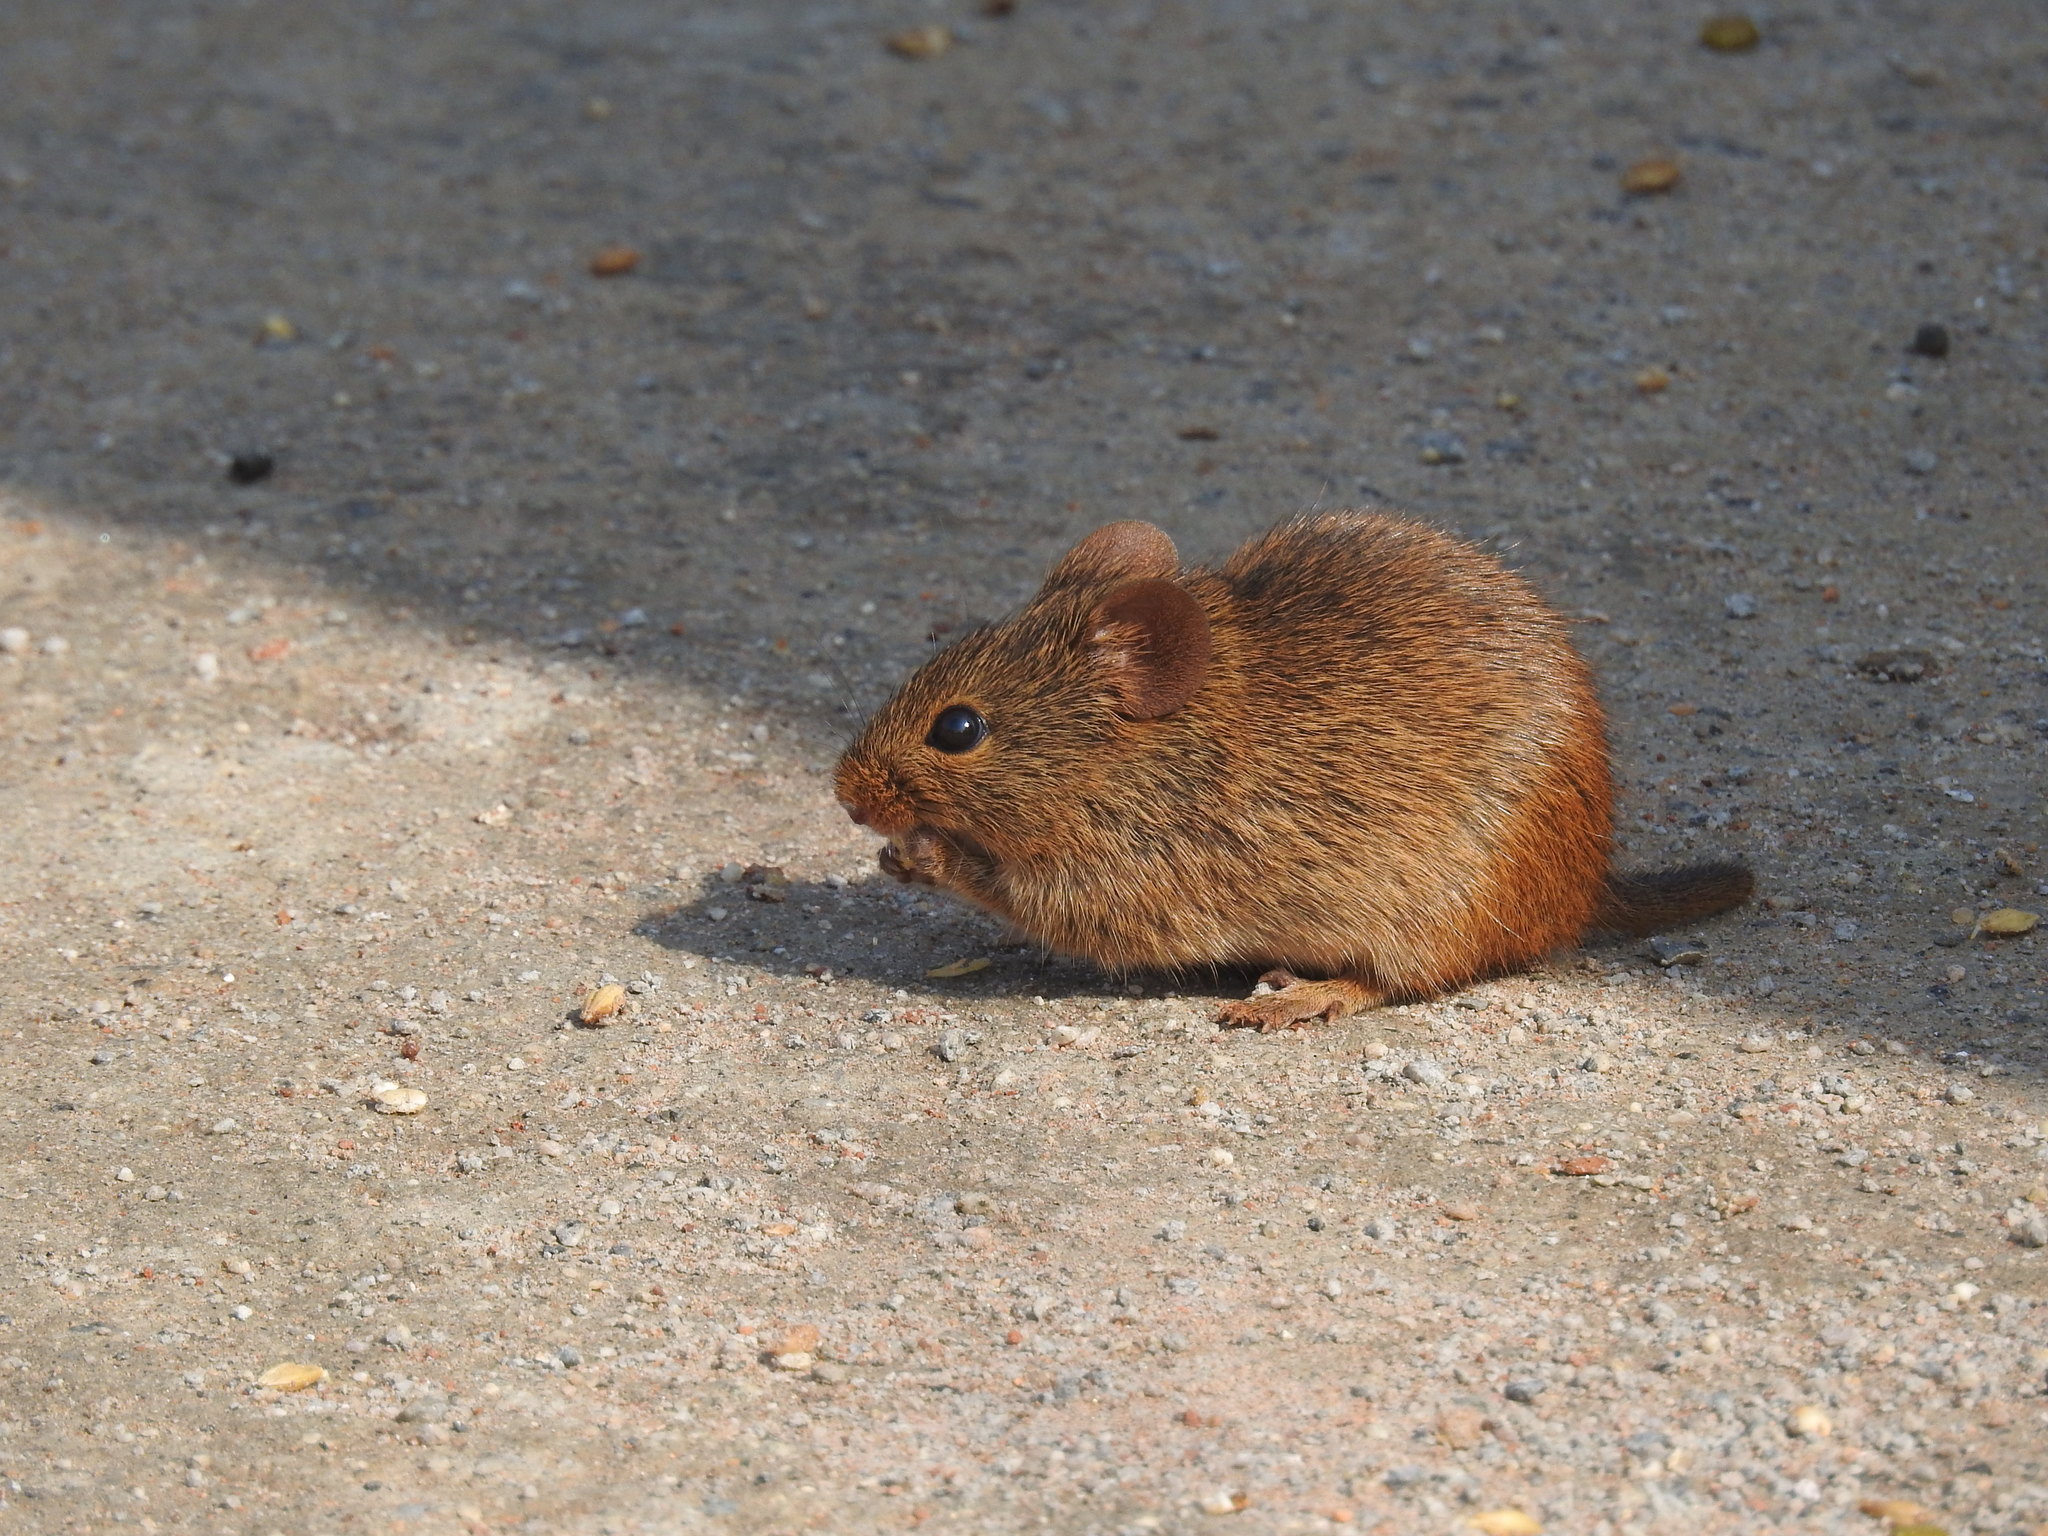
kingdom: Animalia
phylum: Chordata
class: Mammalia
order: Rodentia
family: Muridae
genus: Golunda
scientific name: Golunda ellioti
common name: Indian bush rat
